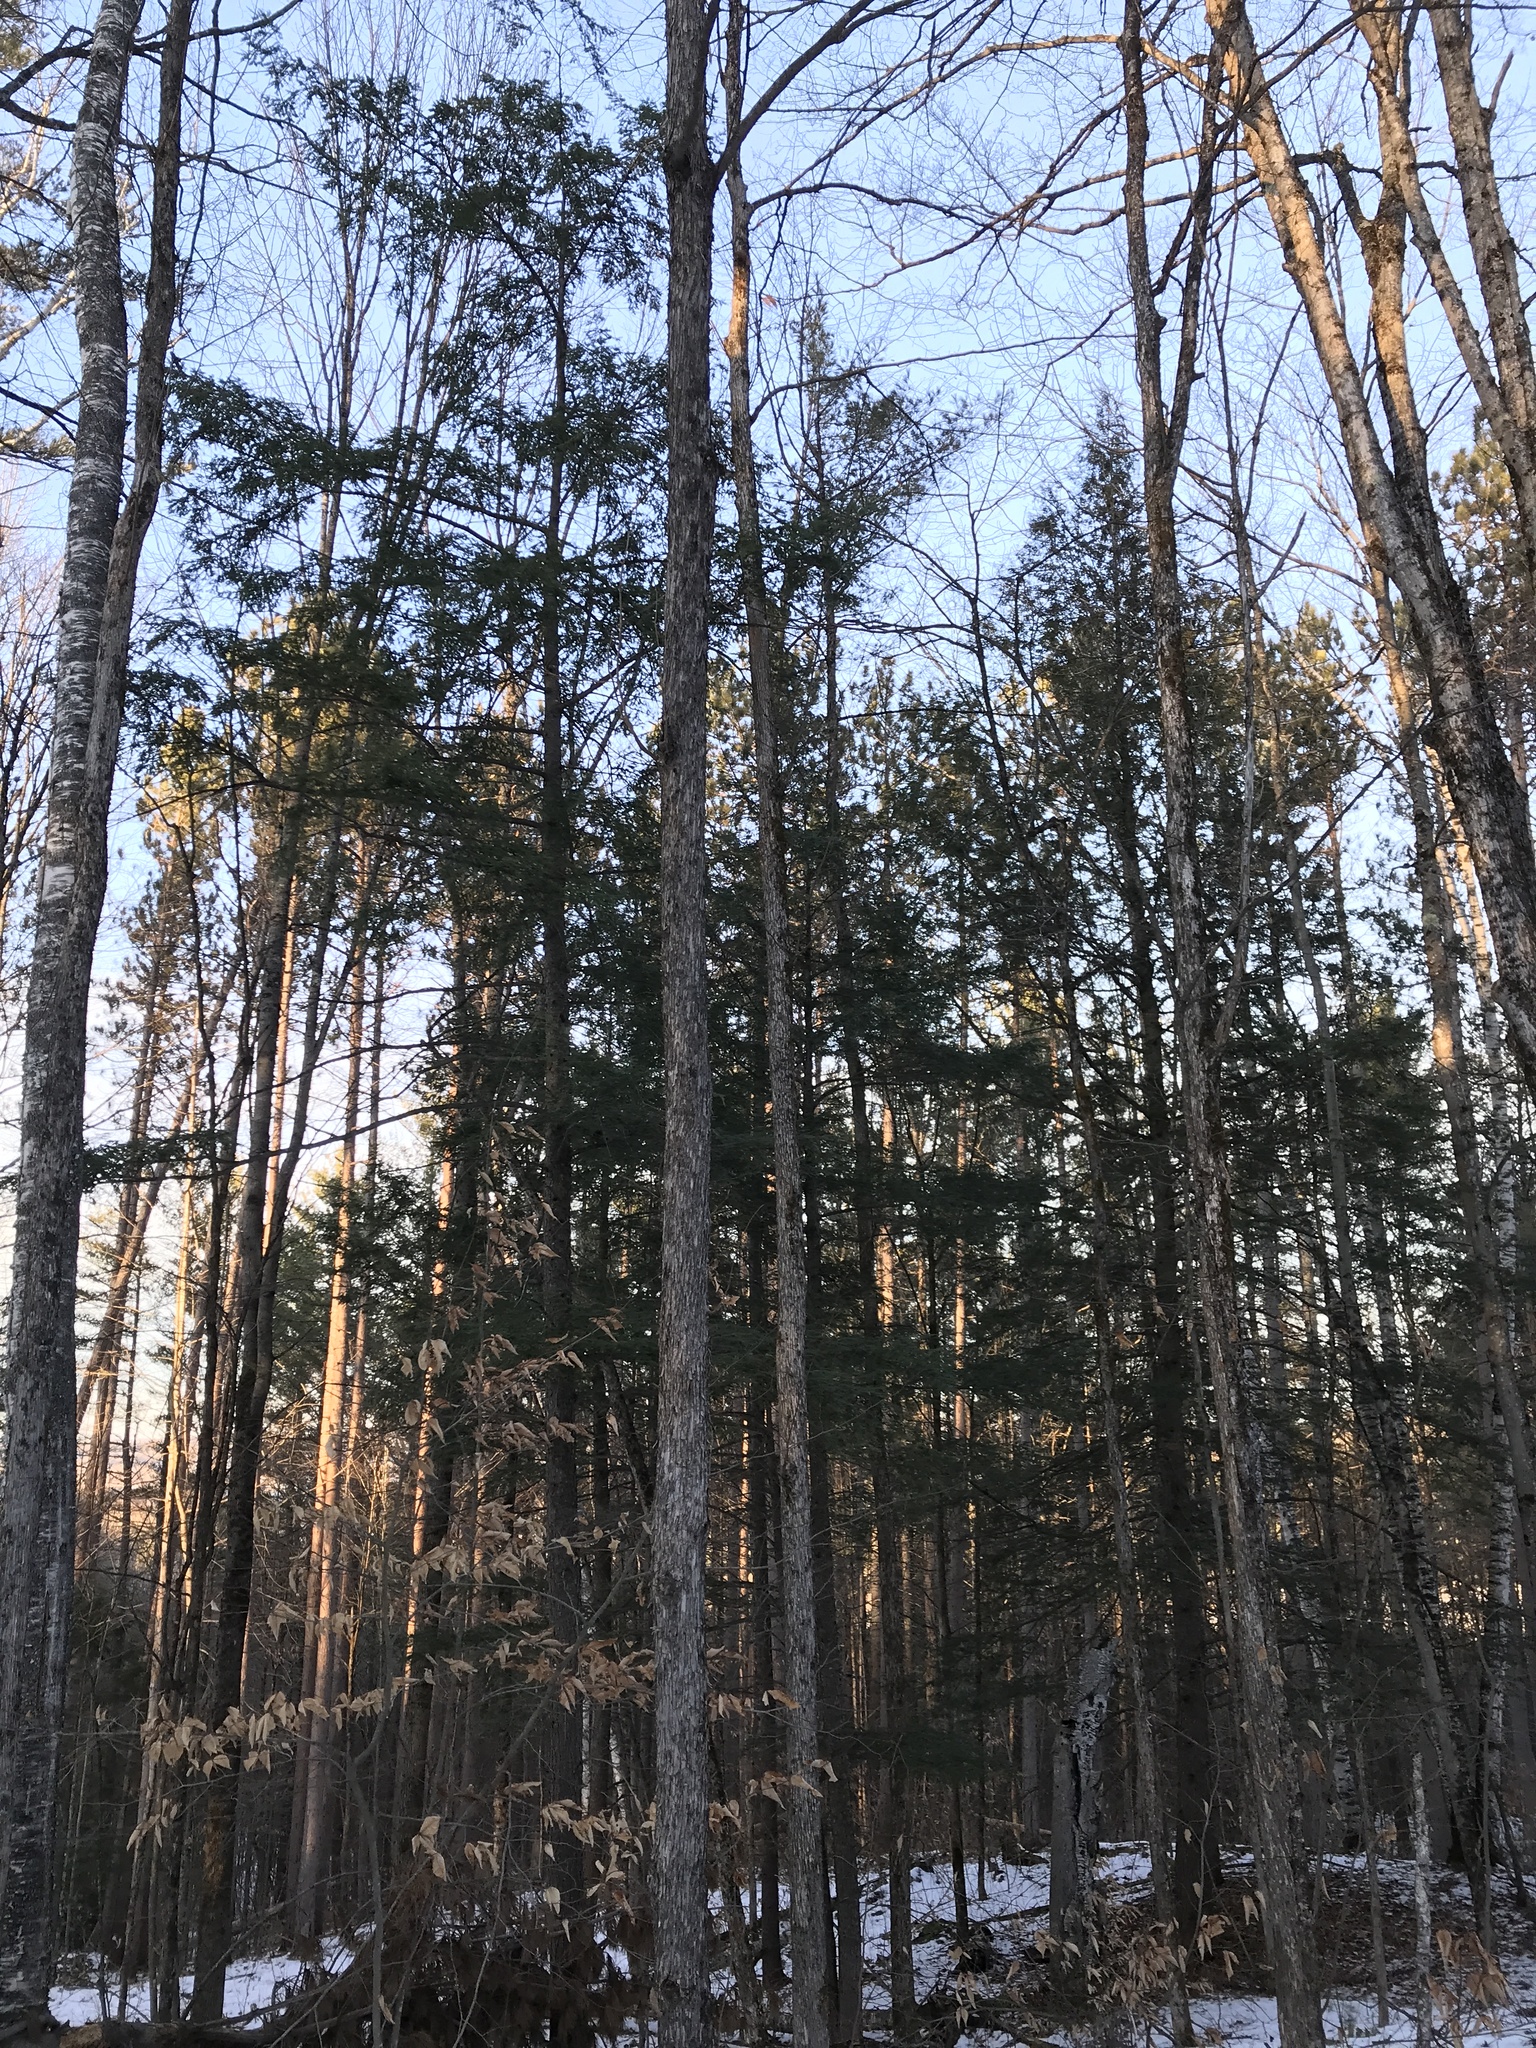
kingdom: Plantae
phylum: Tracheophyta
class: Pinopsida
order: Pinales
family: Pinaceae
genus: Tsuga
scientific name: Tsuga canadensis
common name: Eastern hemlock
